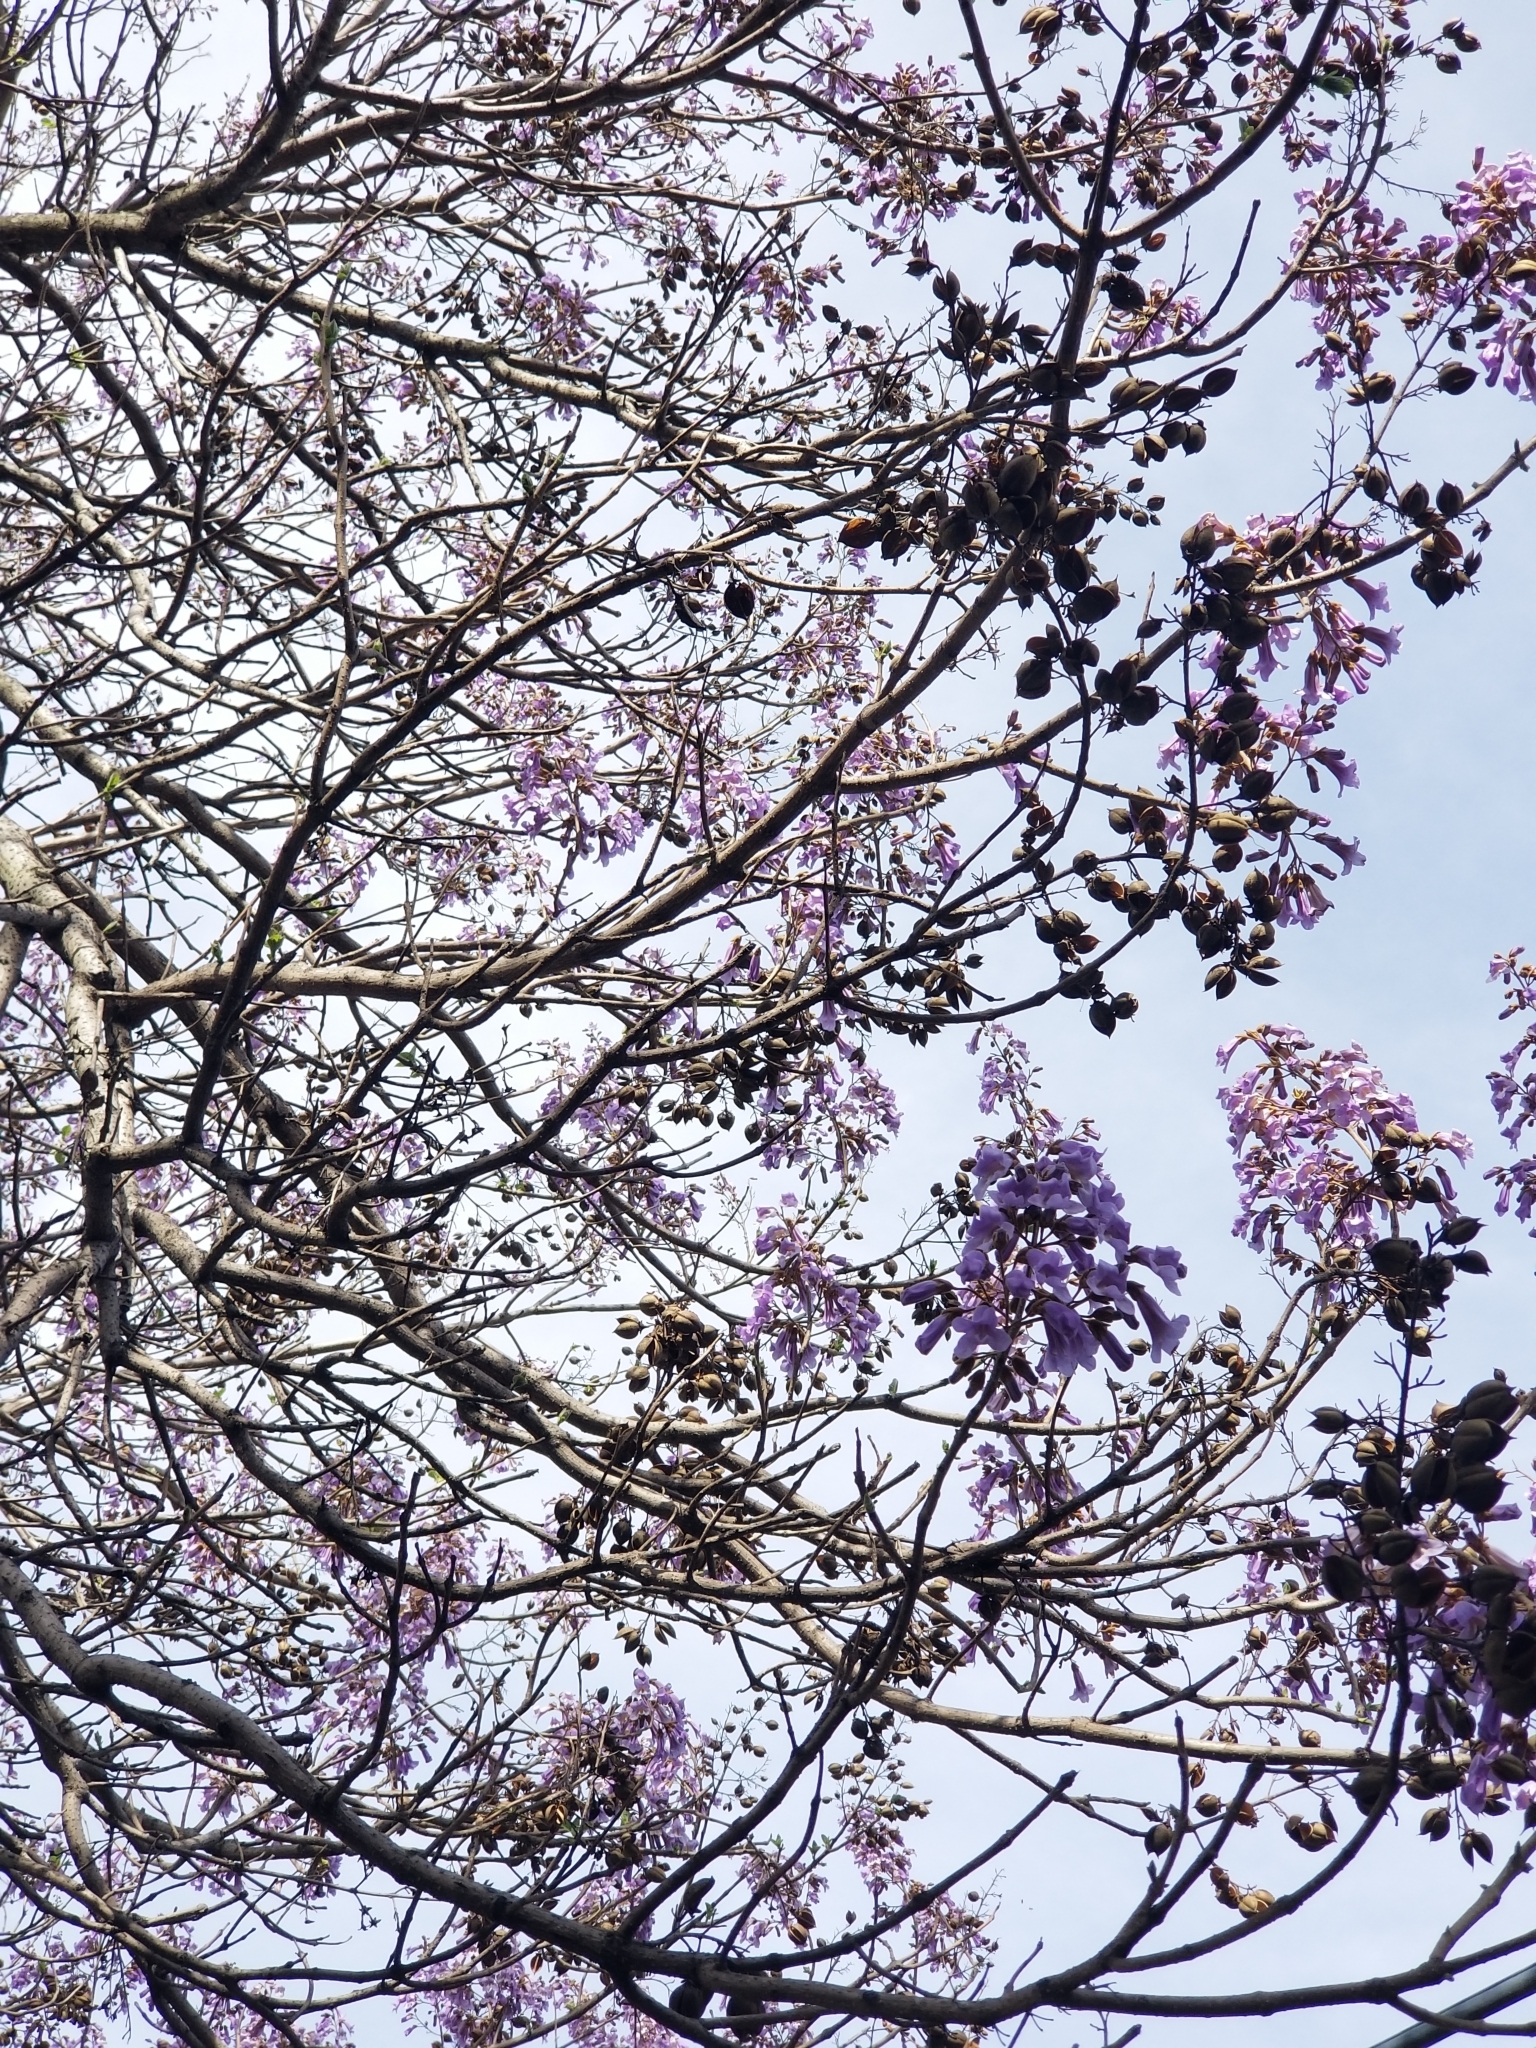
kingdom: Plantae
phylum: Tracheophyta
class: Magnoliopsida
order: Lamiales
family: Paulowniaceae
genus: Paulownia
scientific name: Paulownia tomentosa
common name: Foxglove-tree
